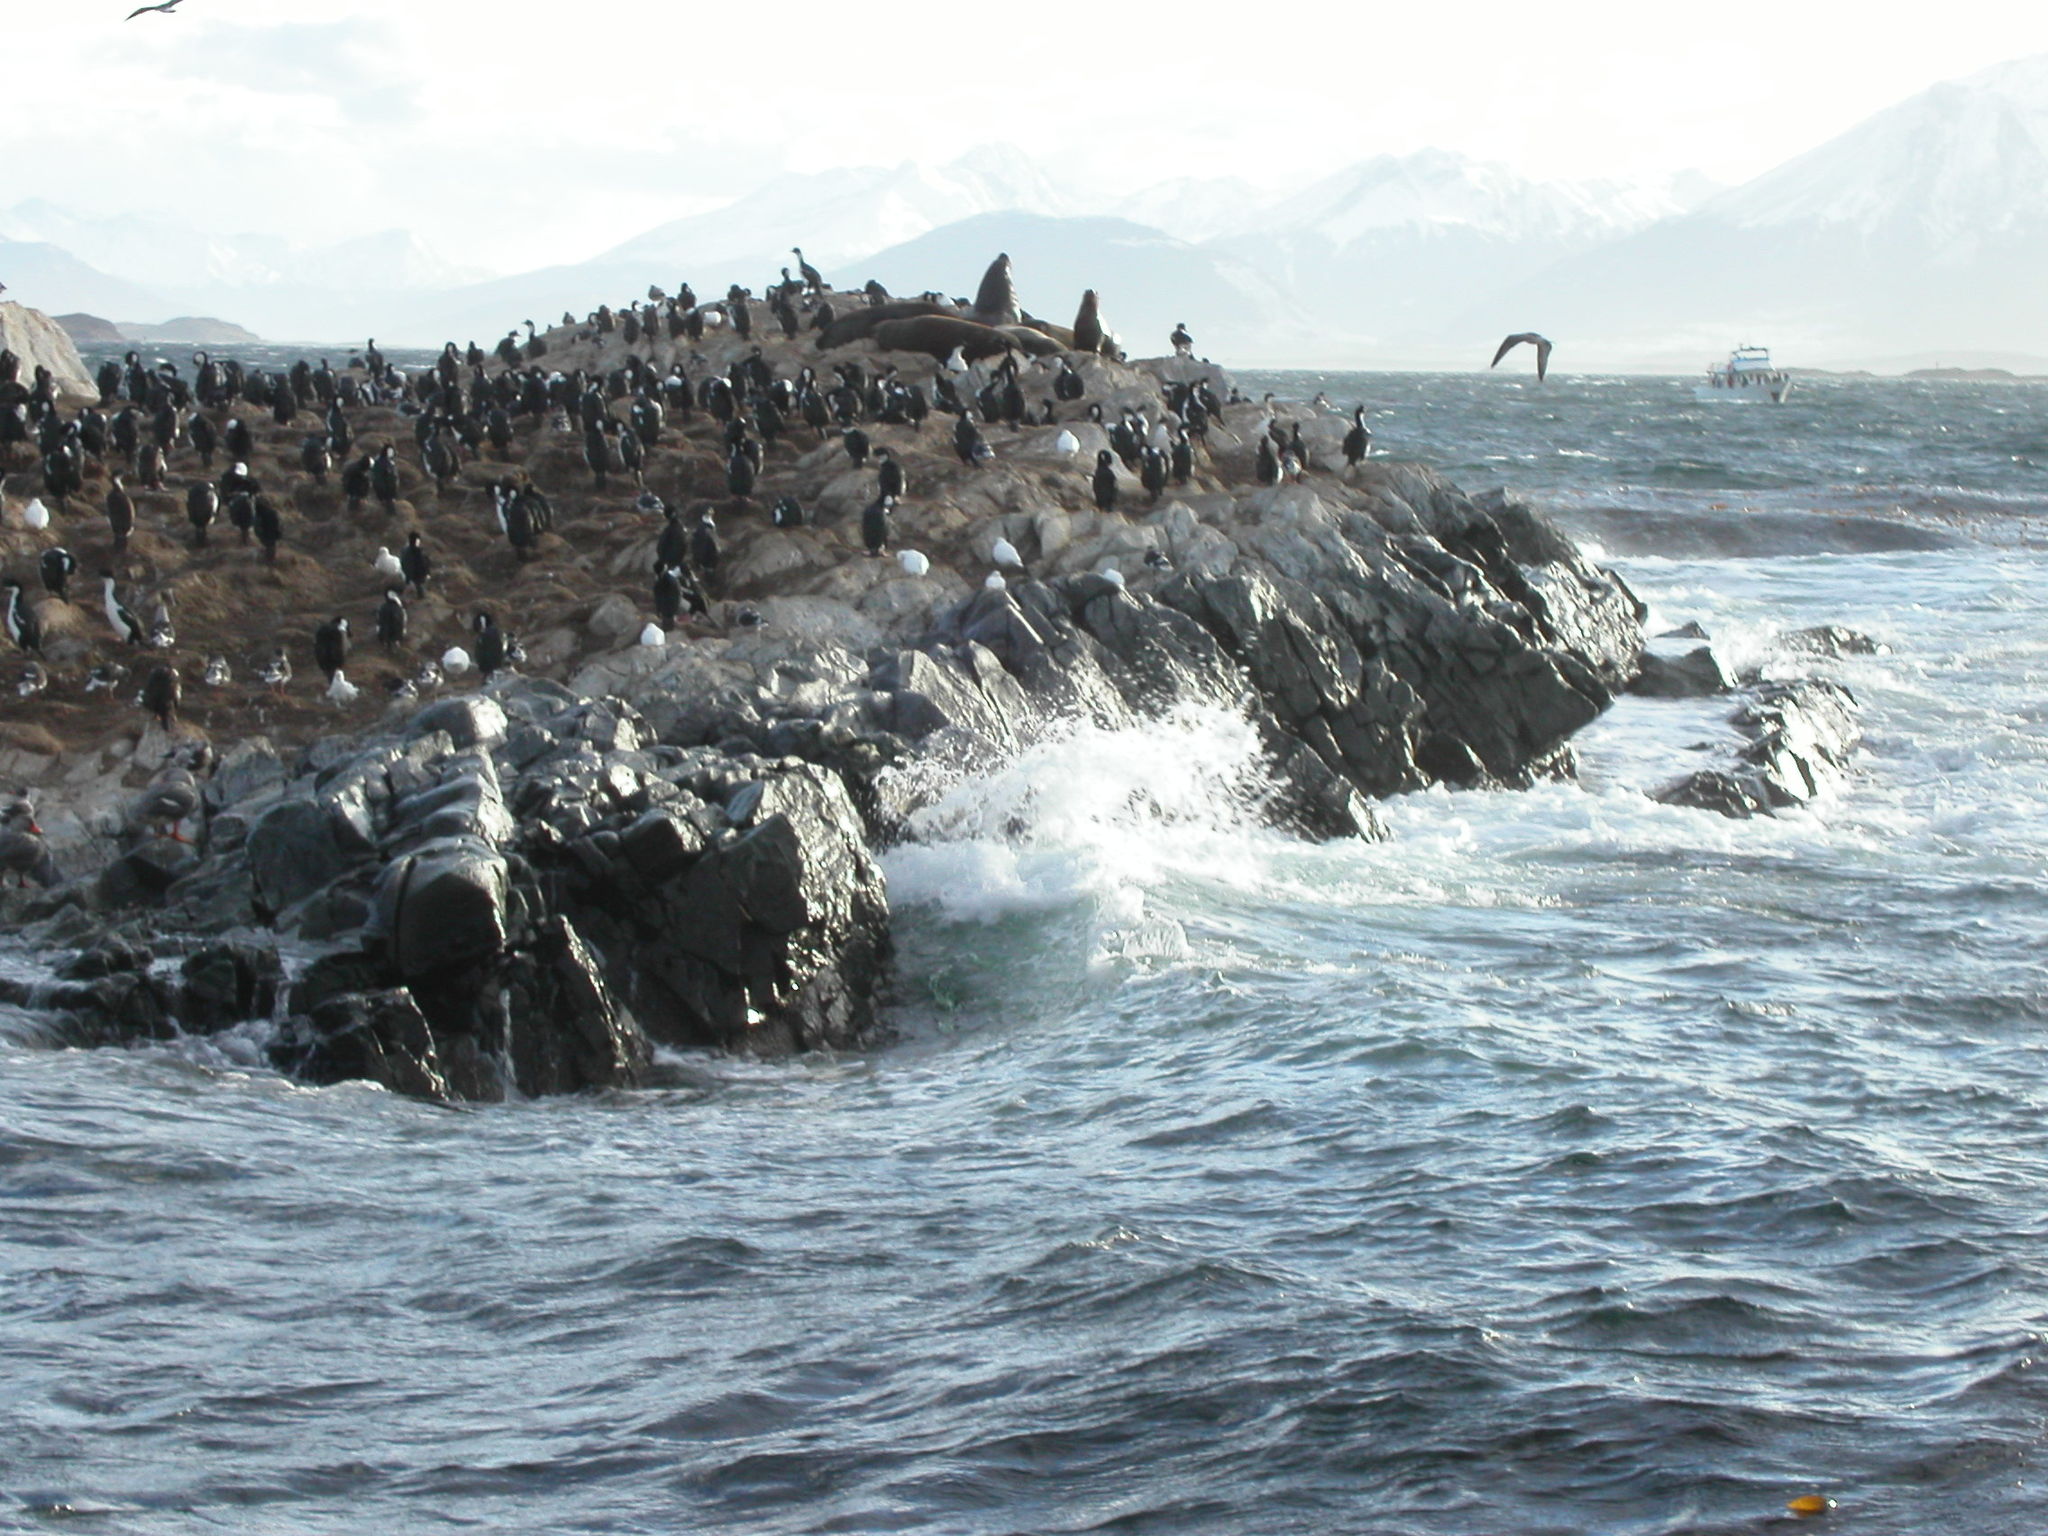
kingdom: Animalia
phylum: Chordata
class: Aves
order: Suliformes
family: Phalacrocoracidae
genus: Leucocarbo
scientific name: Leucocarbo atriceps
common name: Imperial shag
